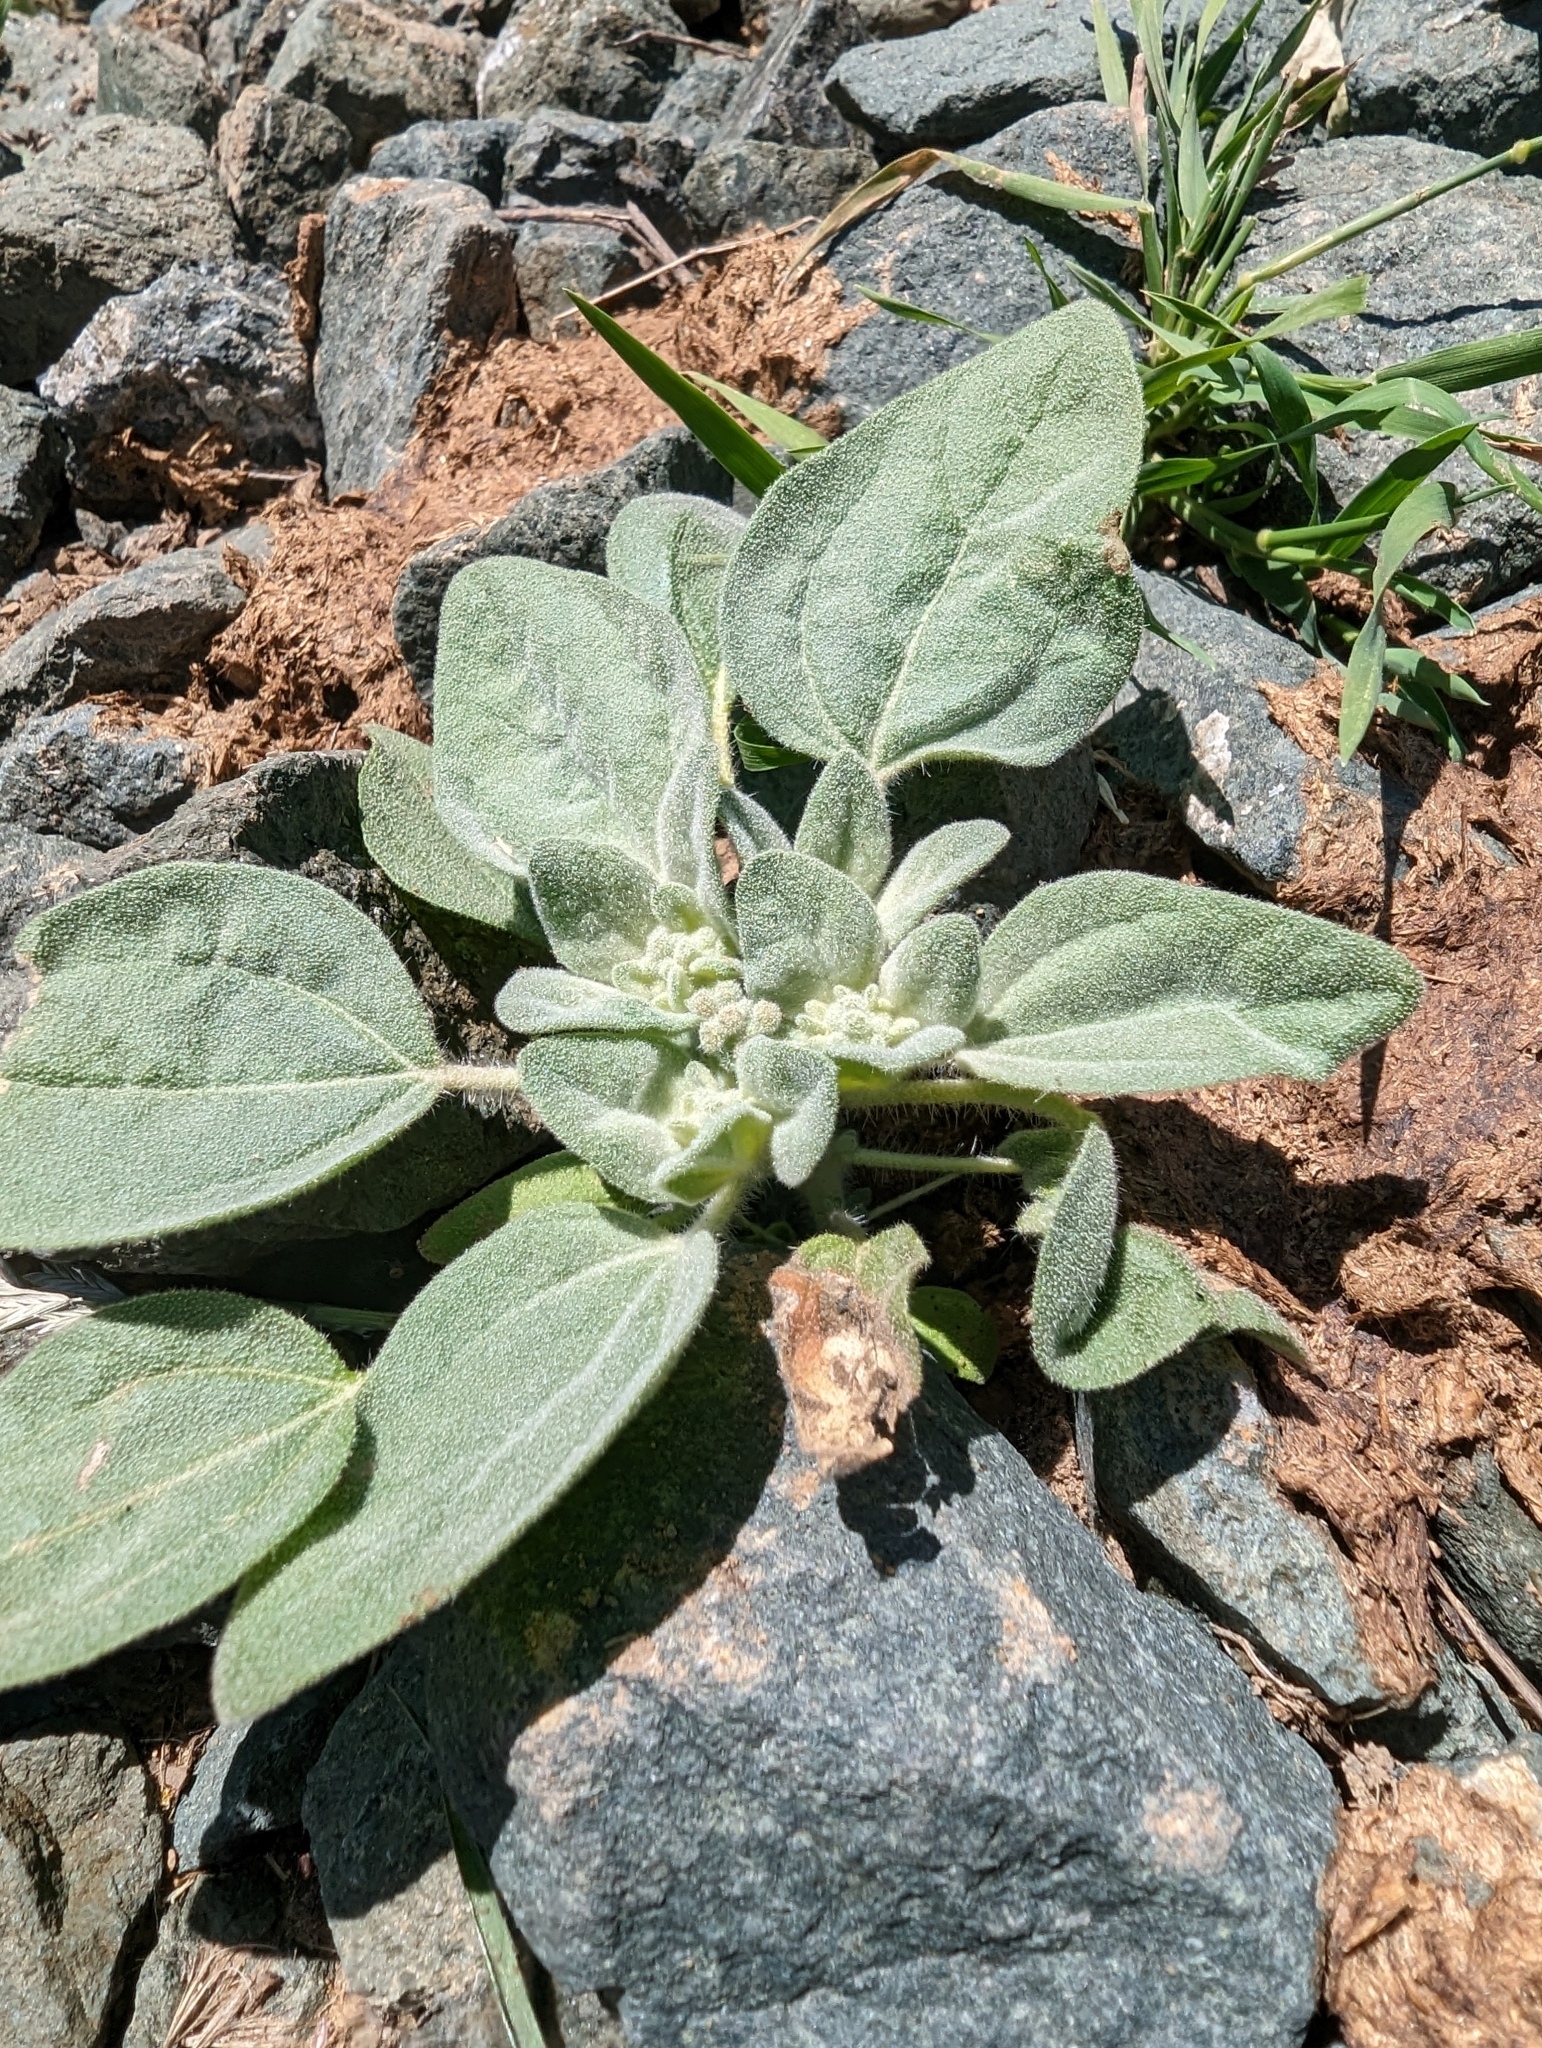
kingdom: Plantae
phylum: Tracheophyta
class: Magnoliopsida
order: Malpighiales
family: Euphorbiaceae
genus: Croton
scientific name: Croton setiger
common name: Dove weed
